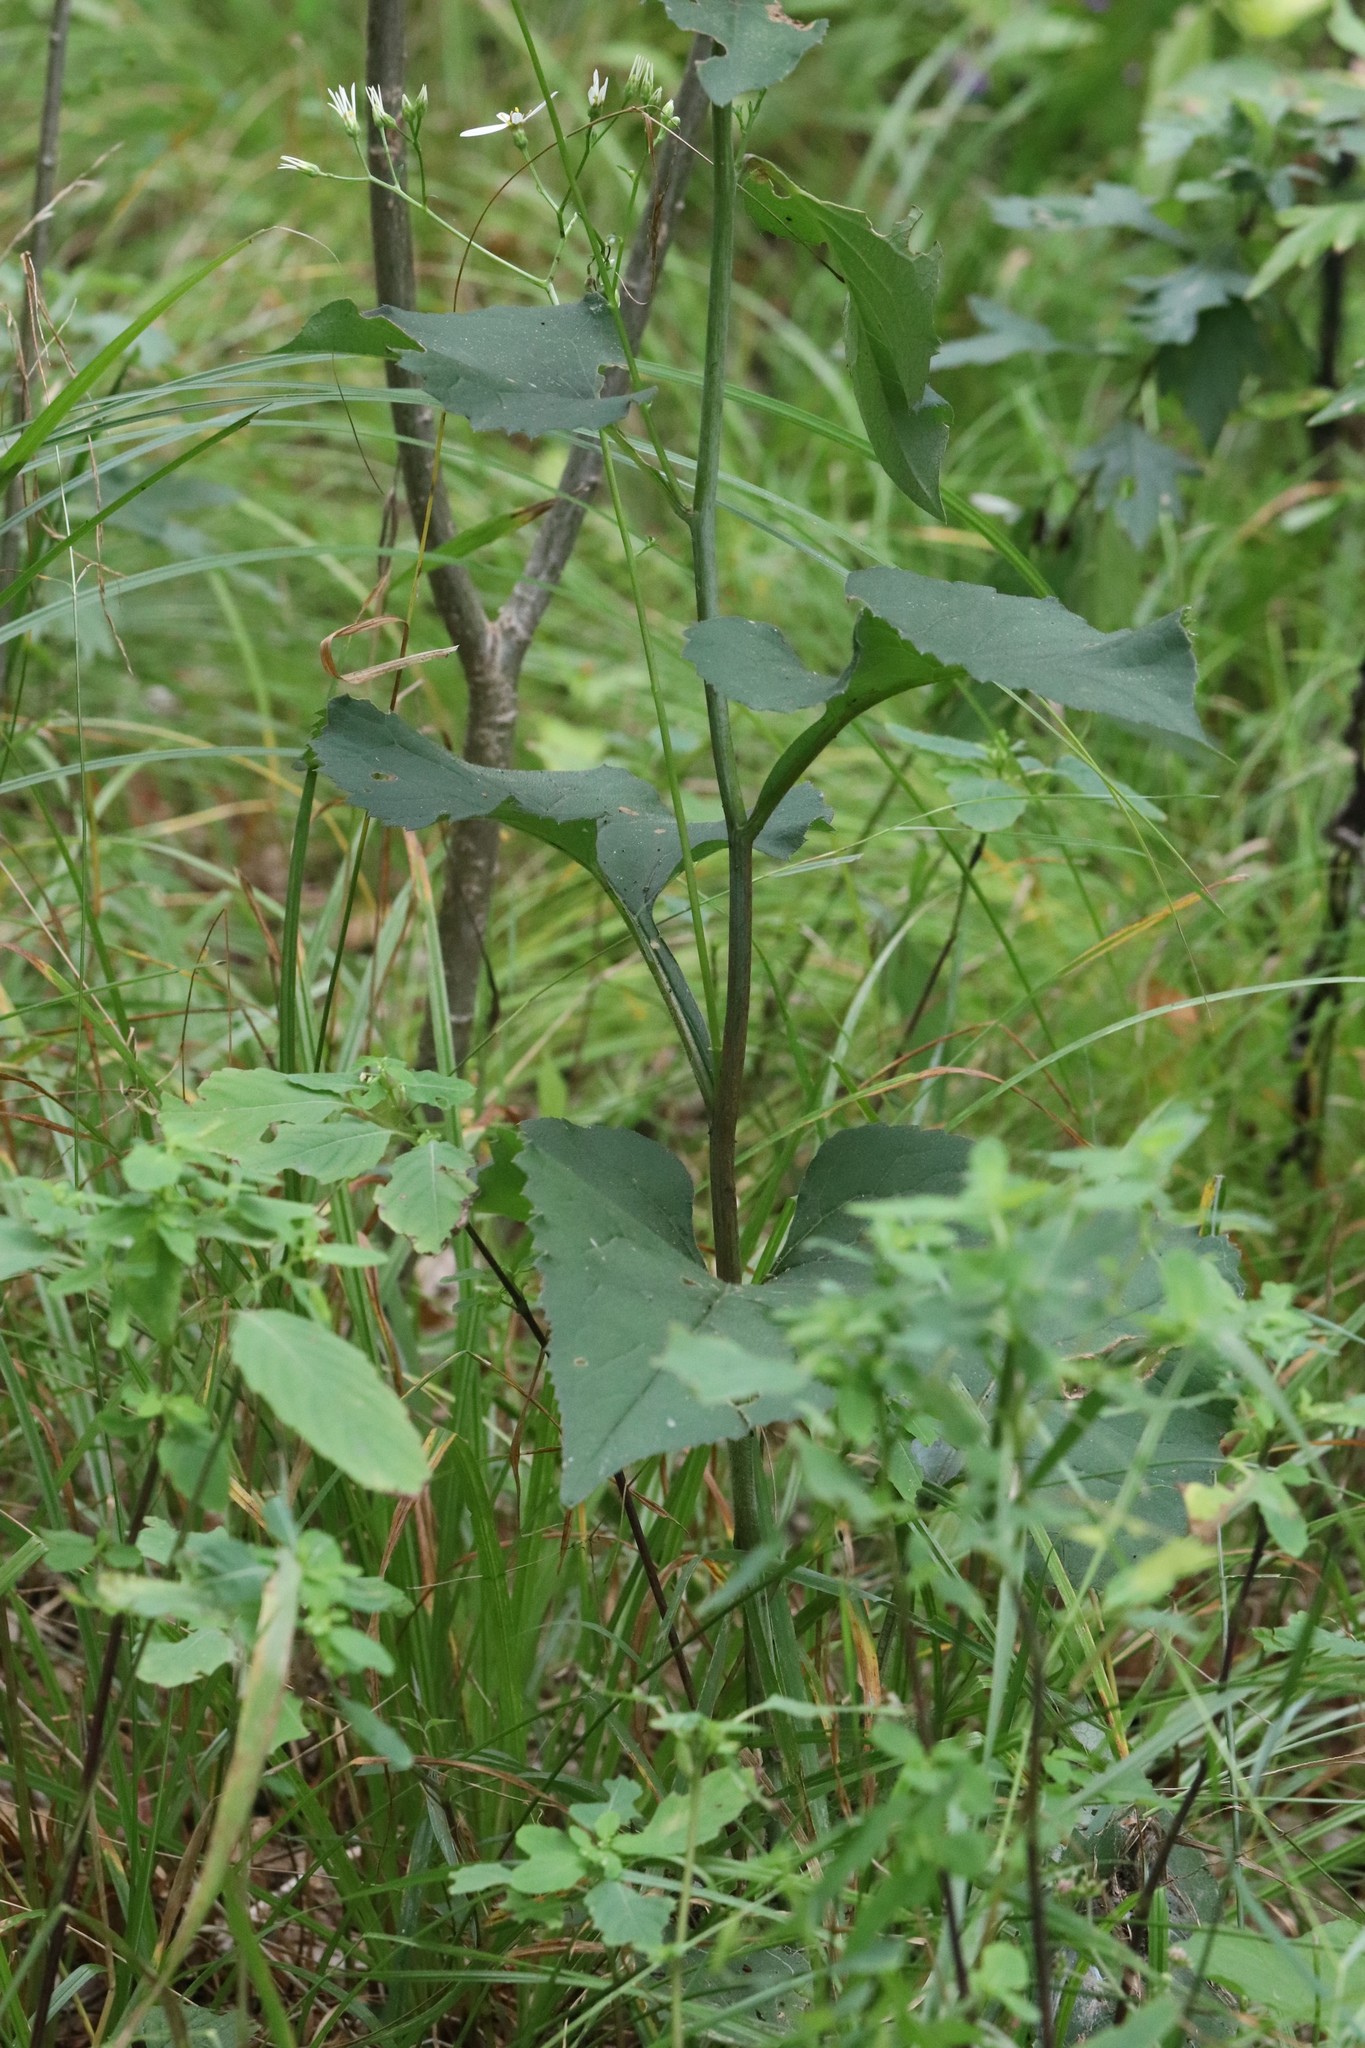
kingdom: Plantae
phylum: Tracheophyta
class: Magnoliopsida
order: Asterales
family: Asteraceae
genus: Aster
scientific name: Aster scaber
